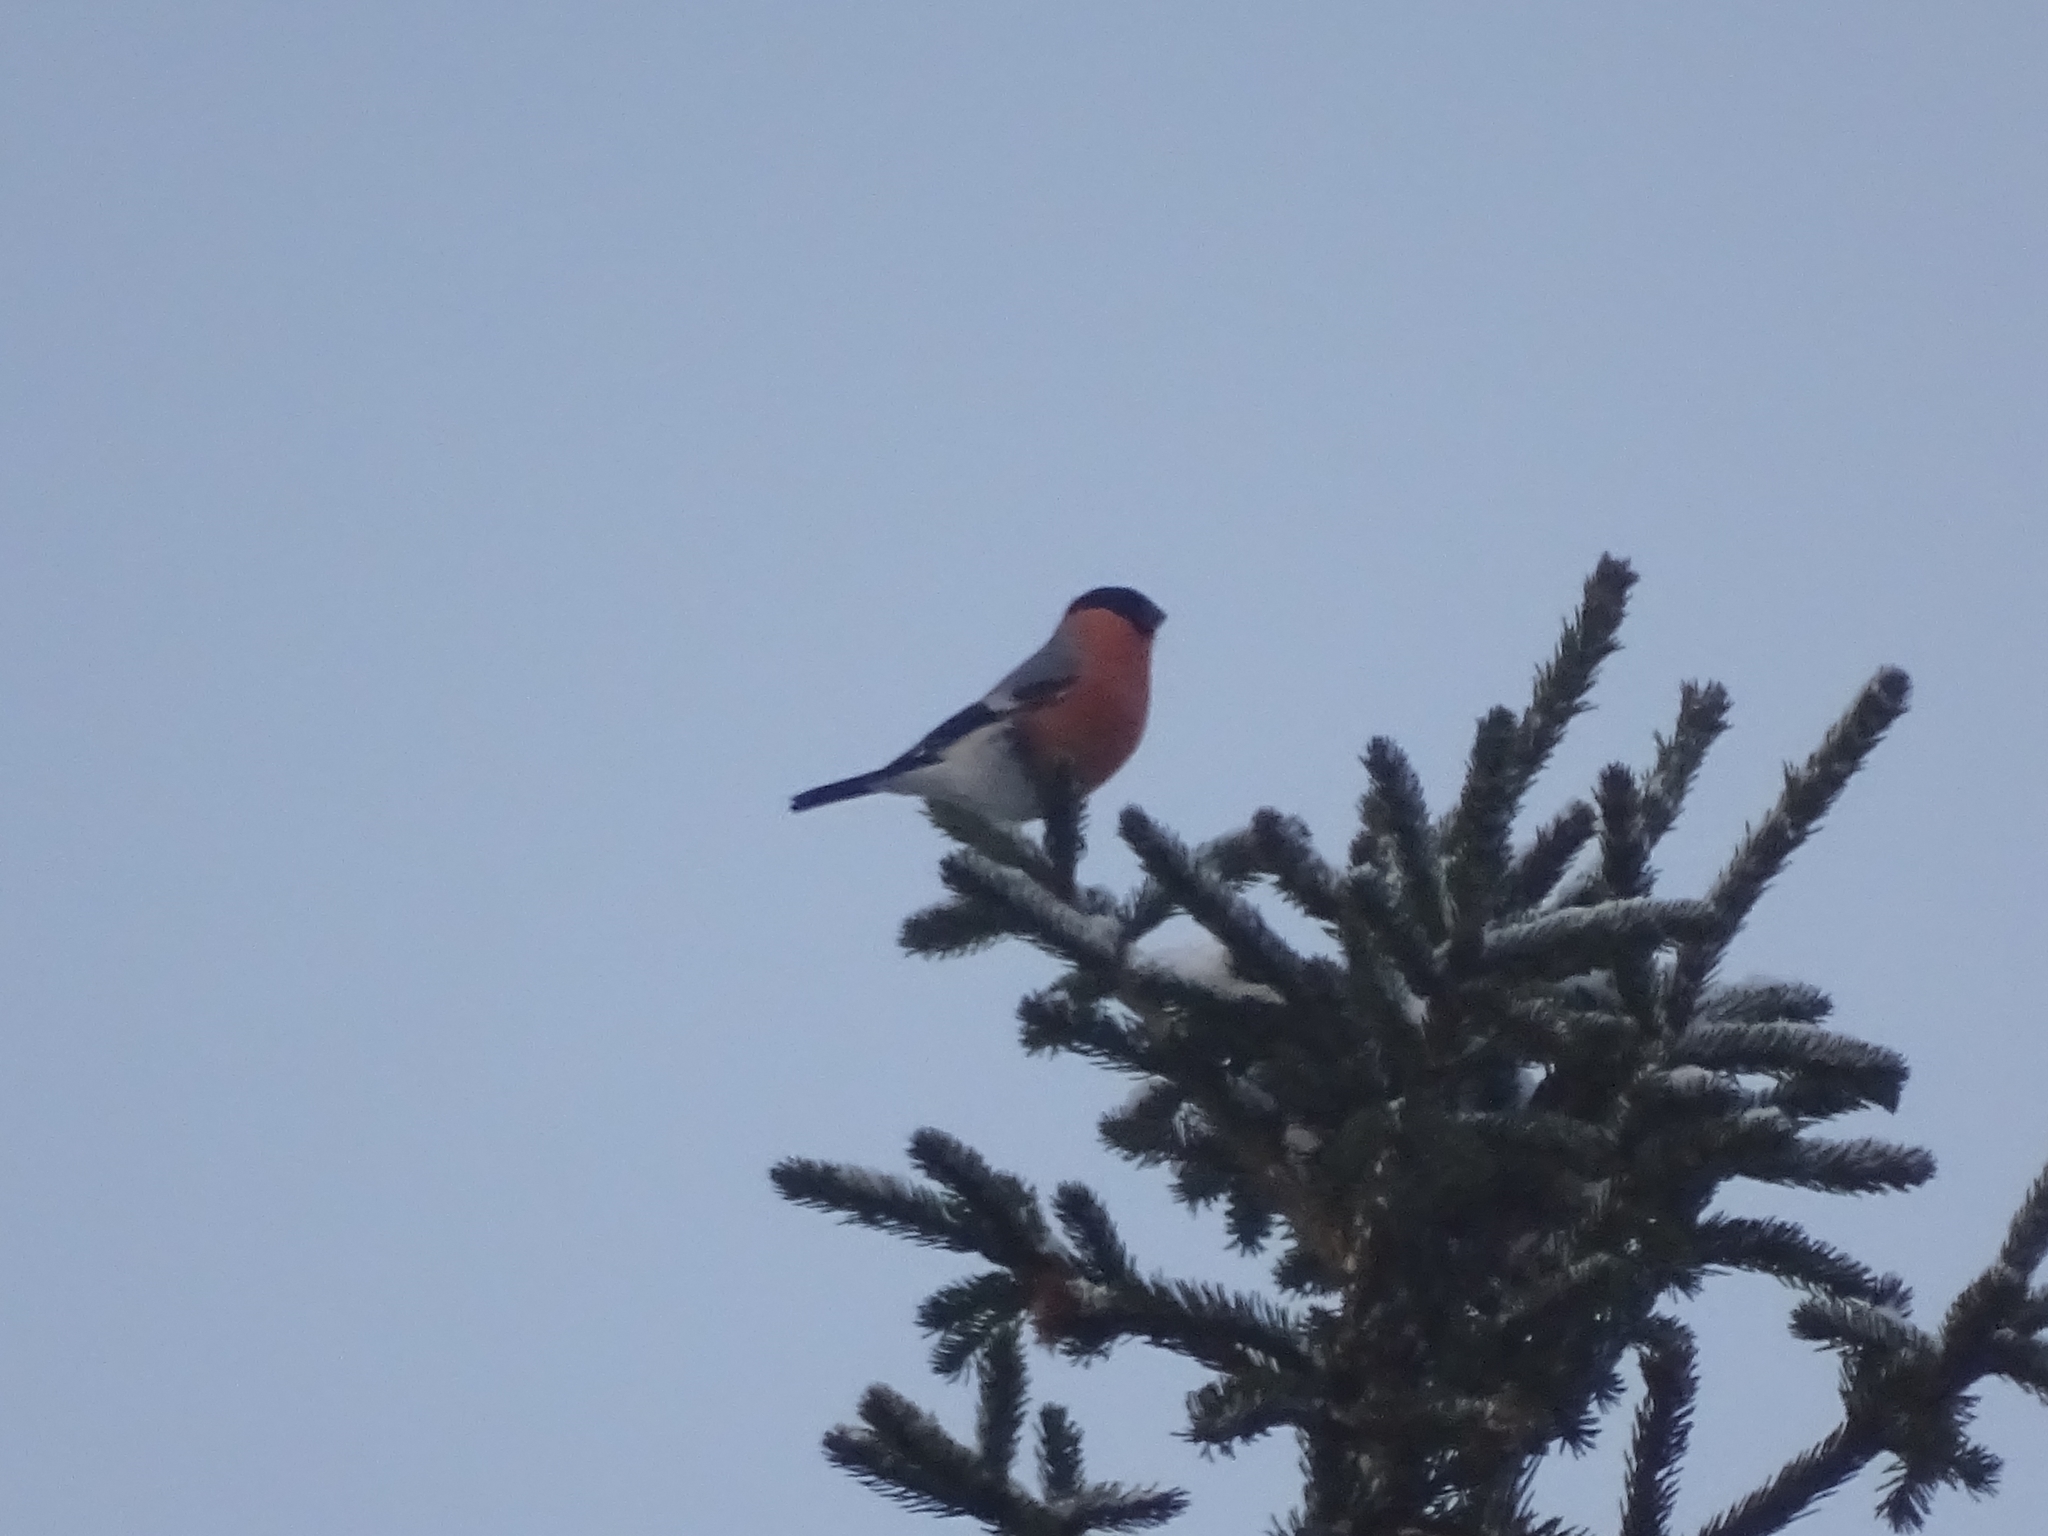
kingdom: Animalia
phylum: Chordata
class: Aves
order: Passeriformes
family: Fringillidae
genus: Pyrrhula
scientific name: Pyrrhula pyrrhula
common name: Eurasian bullfinch
